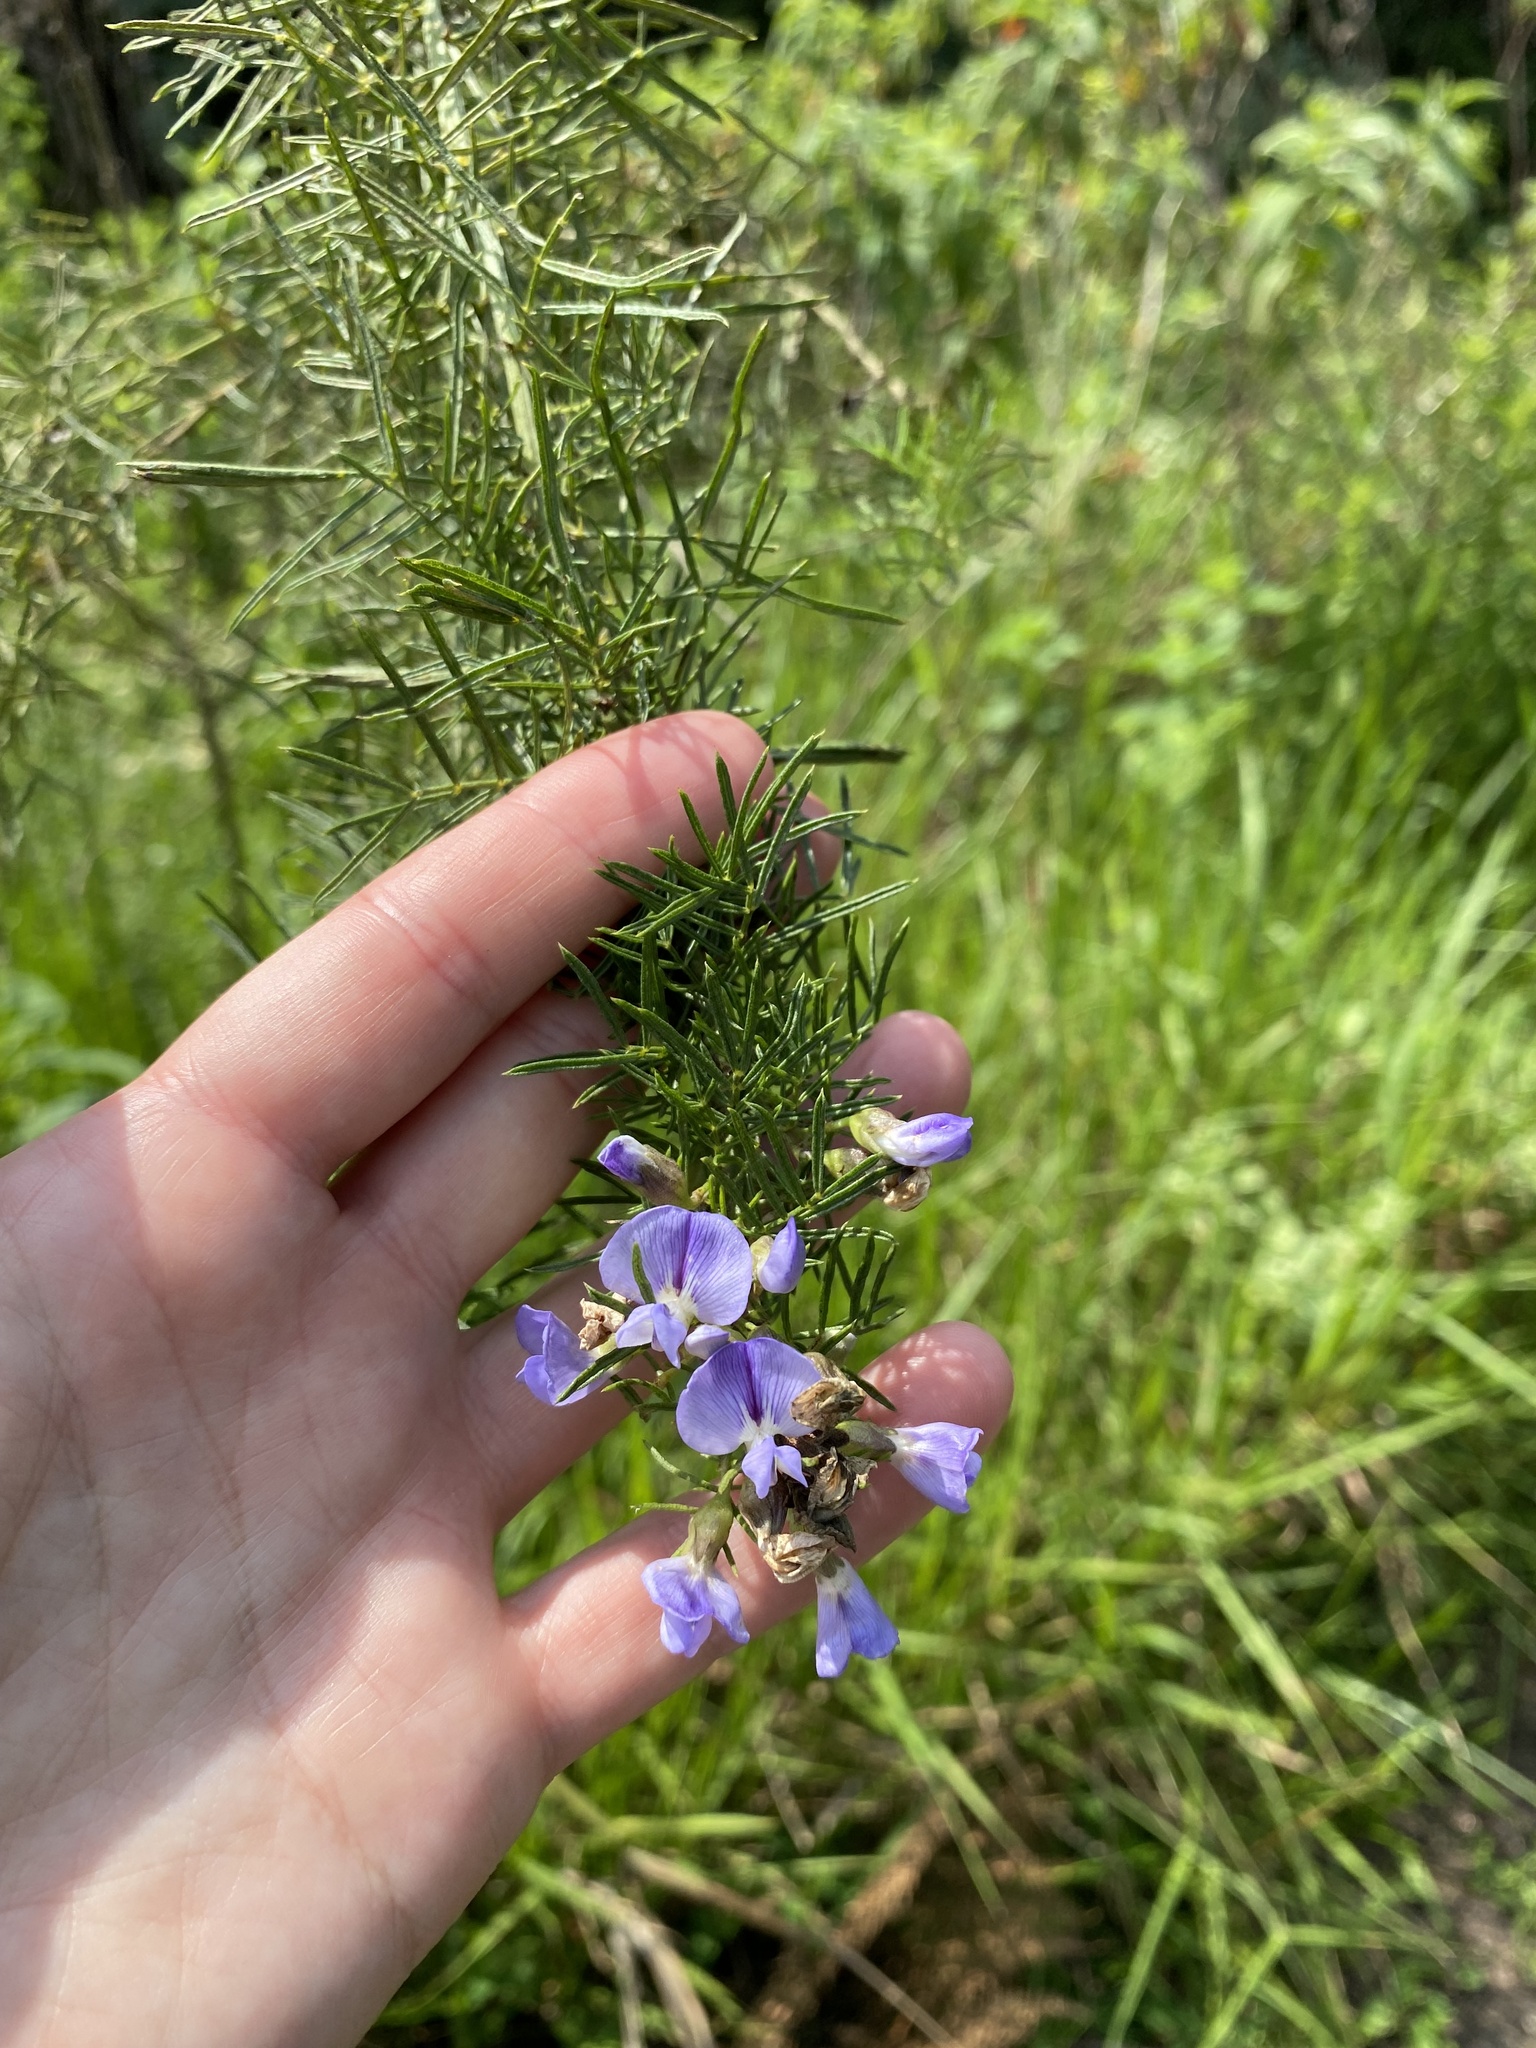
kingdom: Plantae
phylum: Tracheophyta
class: Magnoliopsida
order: Fabales
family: Fabaceae
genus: Psoralea
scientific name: Psoralea glabra
